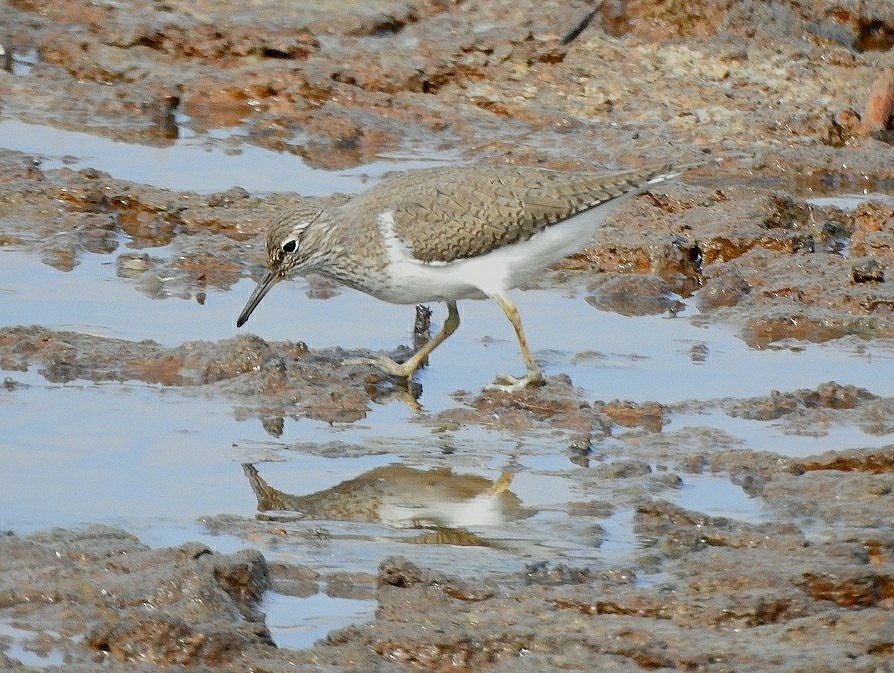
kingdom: Animalia
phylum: Chordata
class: Aves
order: Charadriiformes
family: Scolopacidae
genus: Actitis
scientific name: Actitis hypoleucos
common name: Common sandpiper
